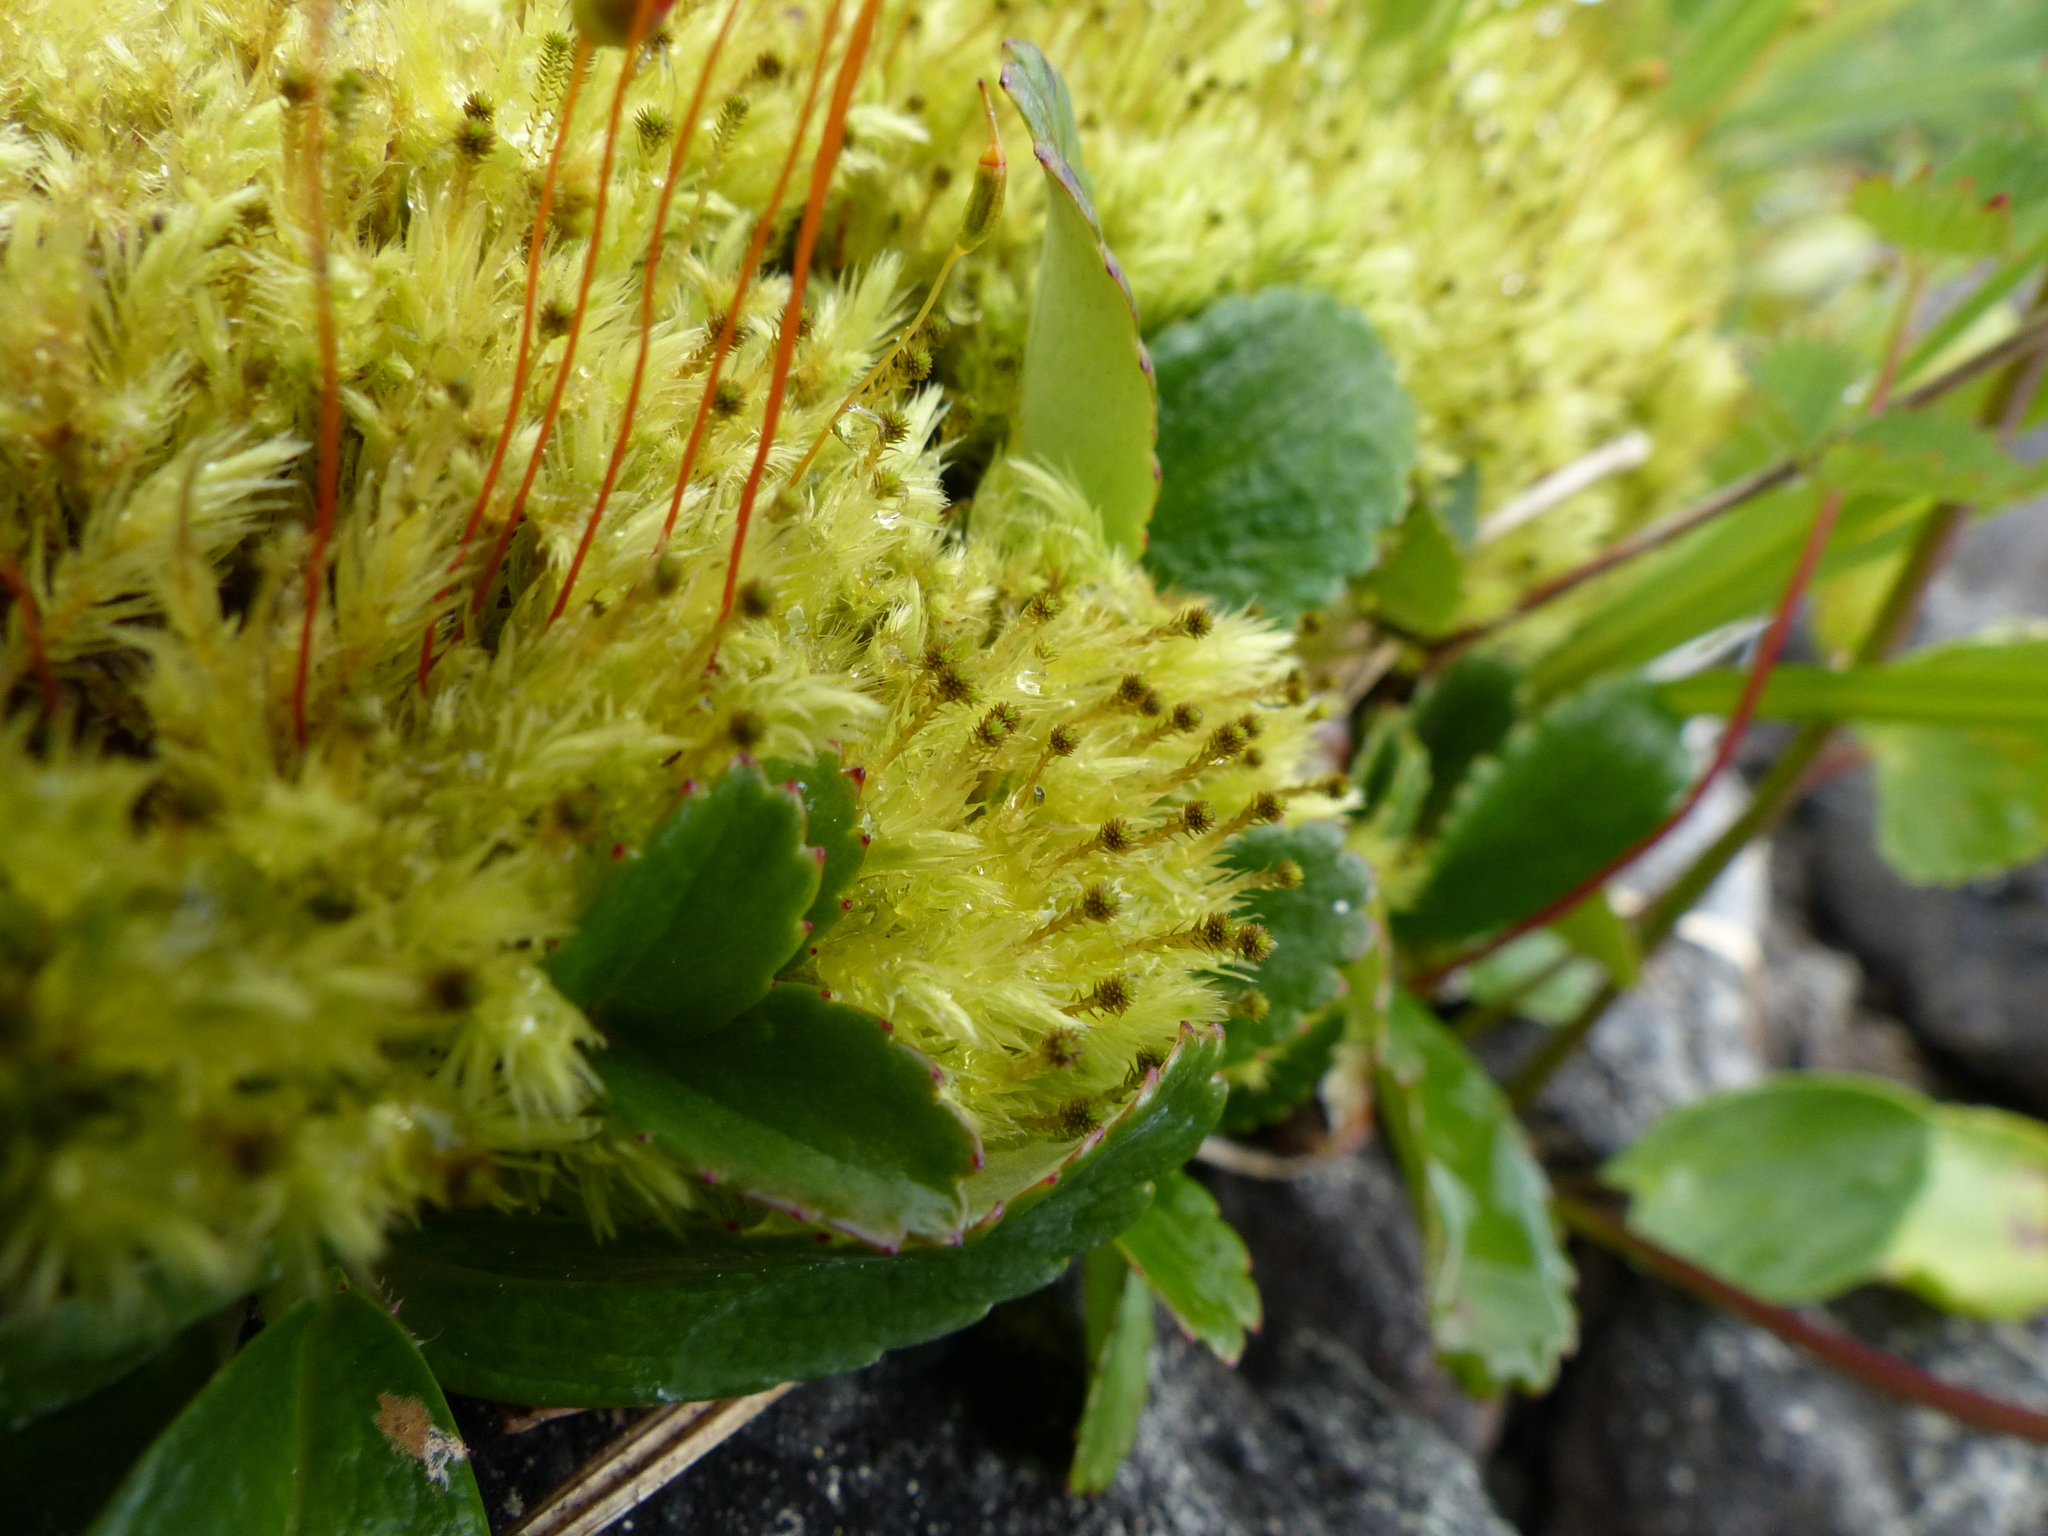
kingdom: Plantae
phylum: Bryophyta
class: Bryopsida
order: Aulacomniales
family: Aulacomniaceae
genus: Aulacomnium
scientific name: Aulacomnium palustre
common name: Bog groove-moss
